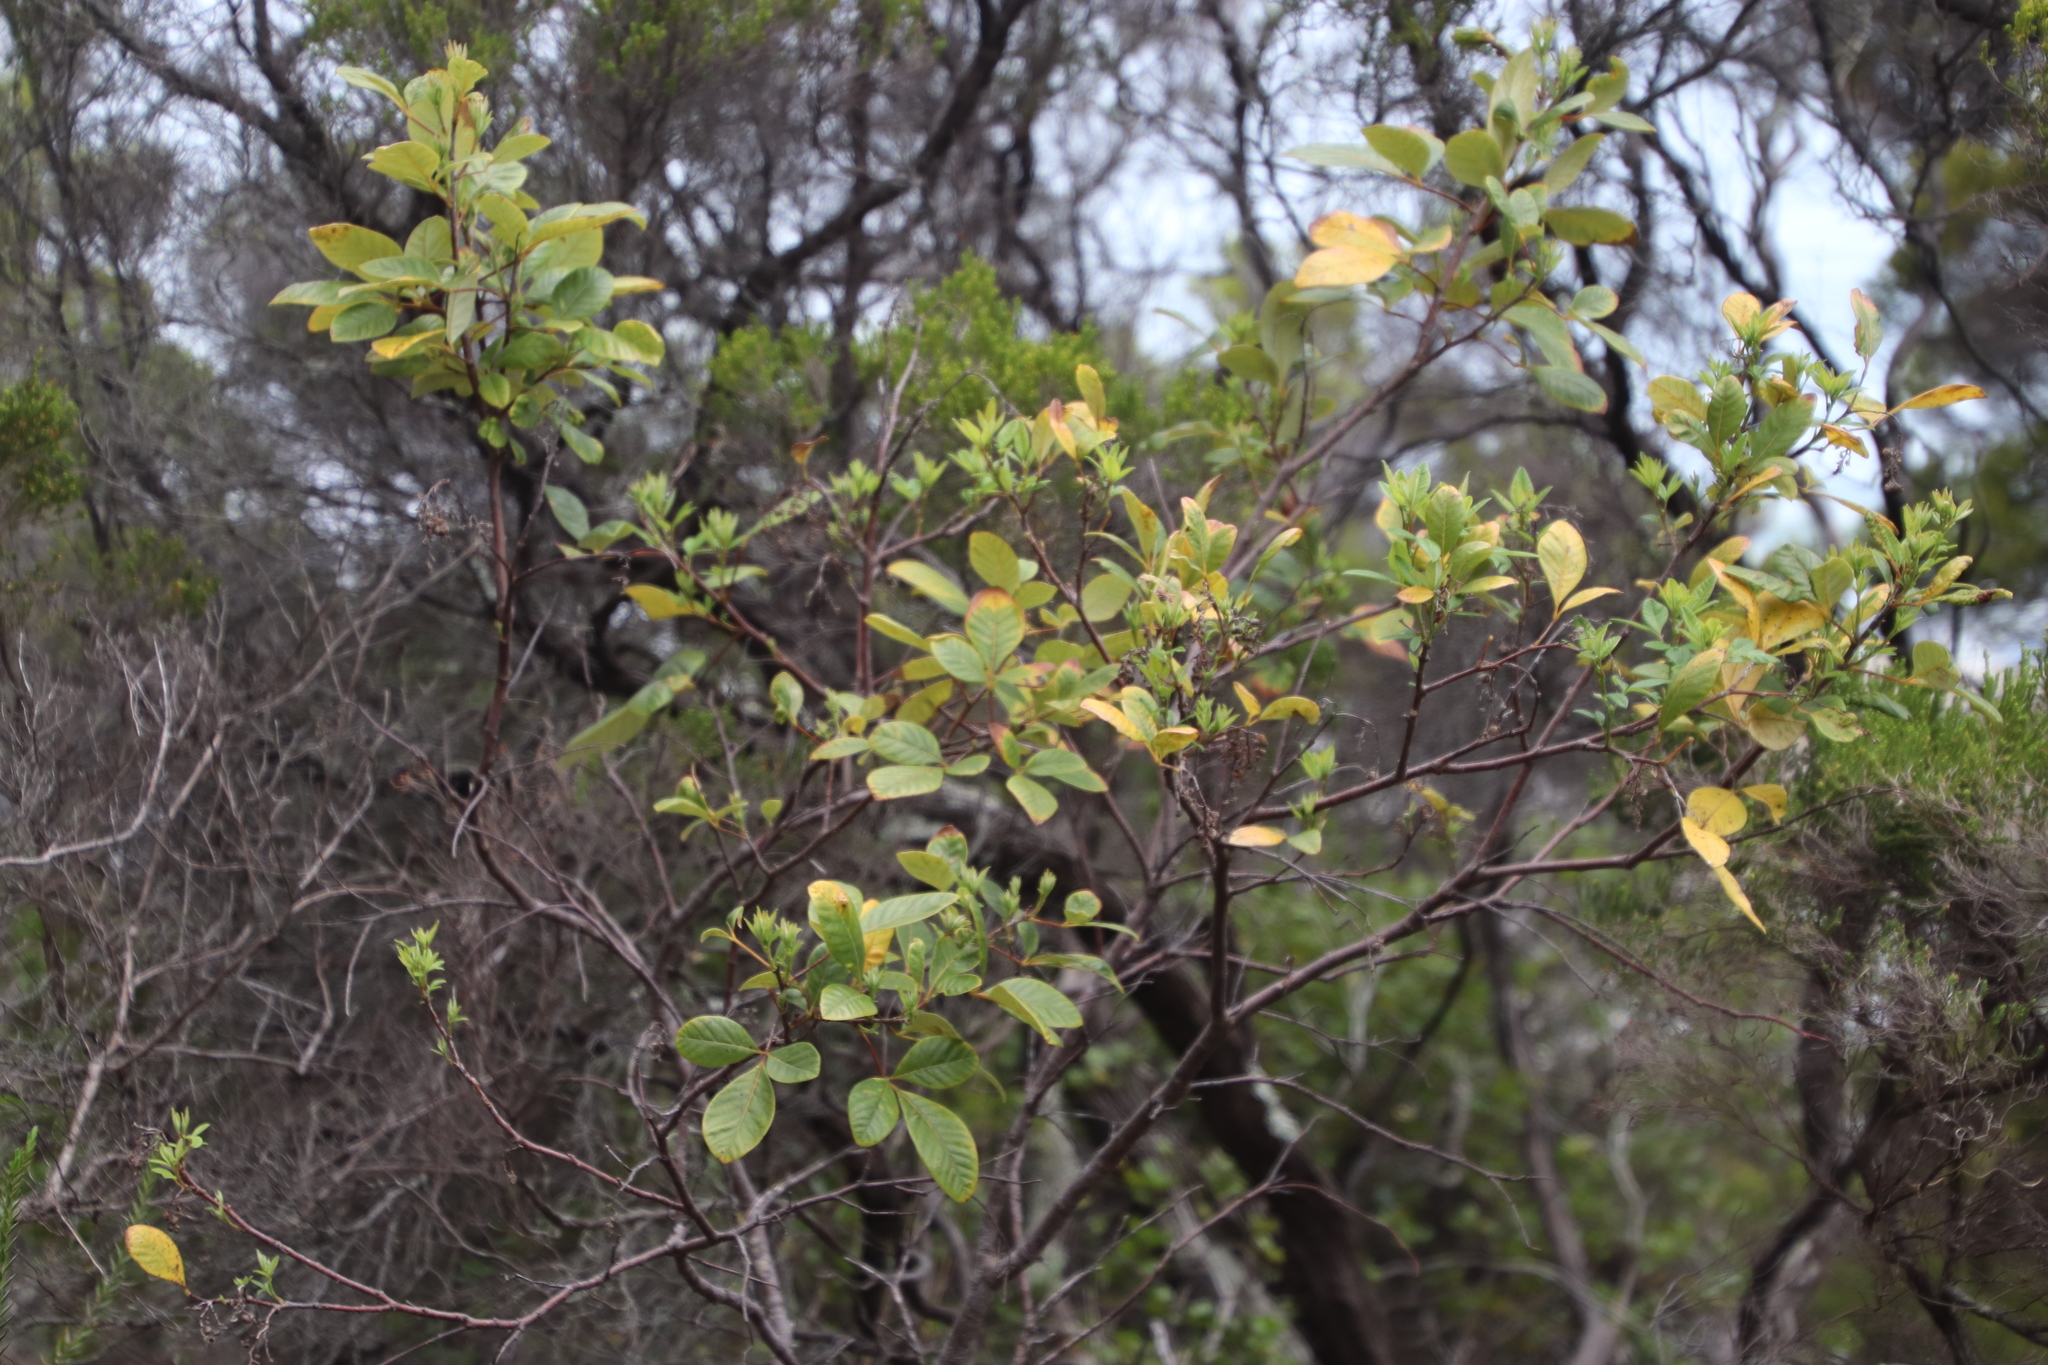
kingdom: Plantae
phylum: Tracheophyta
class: Magnoliopsida
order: Sapindales
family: Anacardiaceae
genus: Searsia
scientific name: Searsia tomentosa
